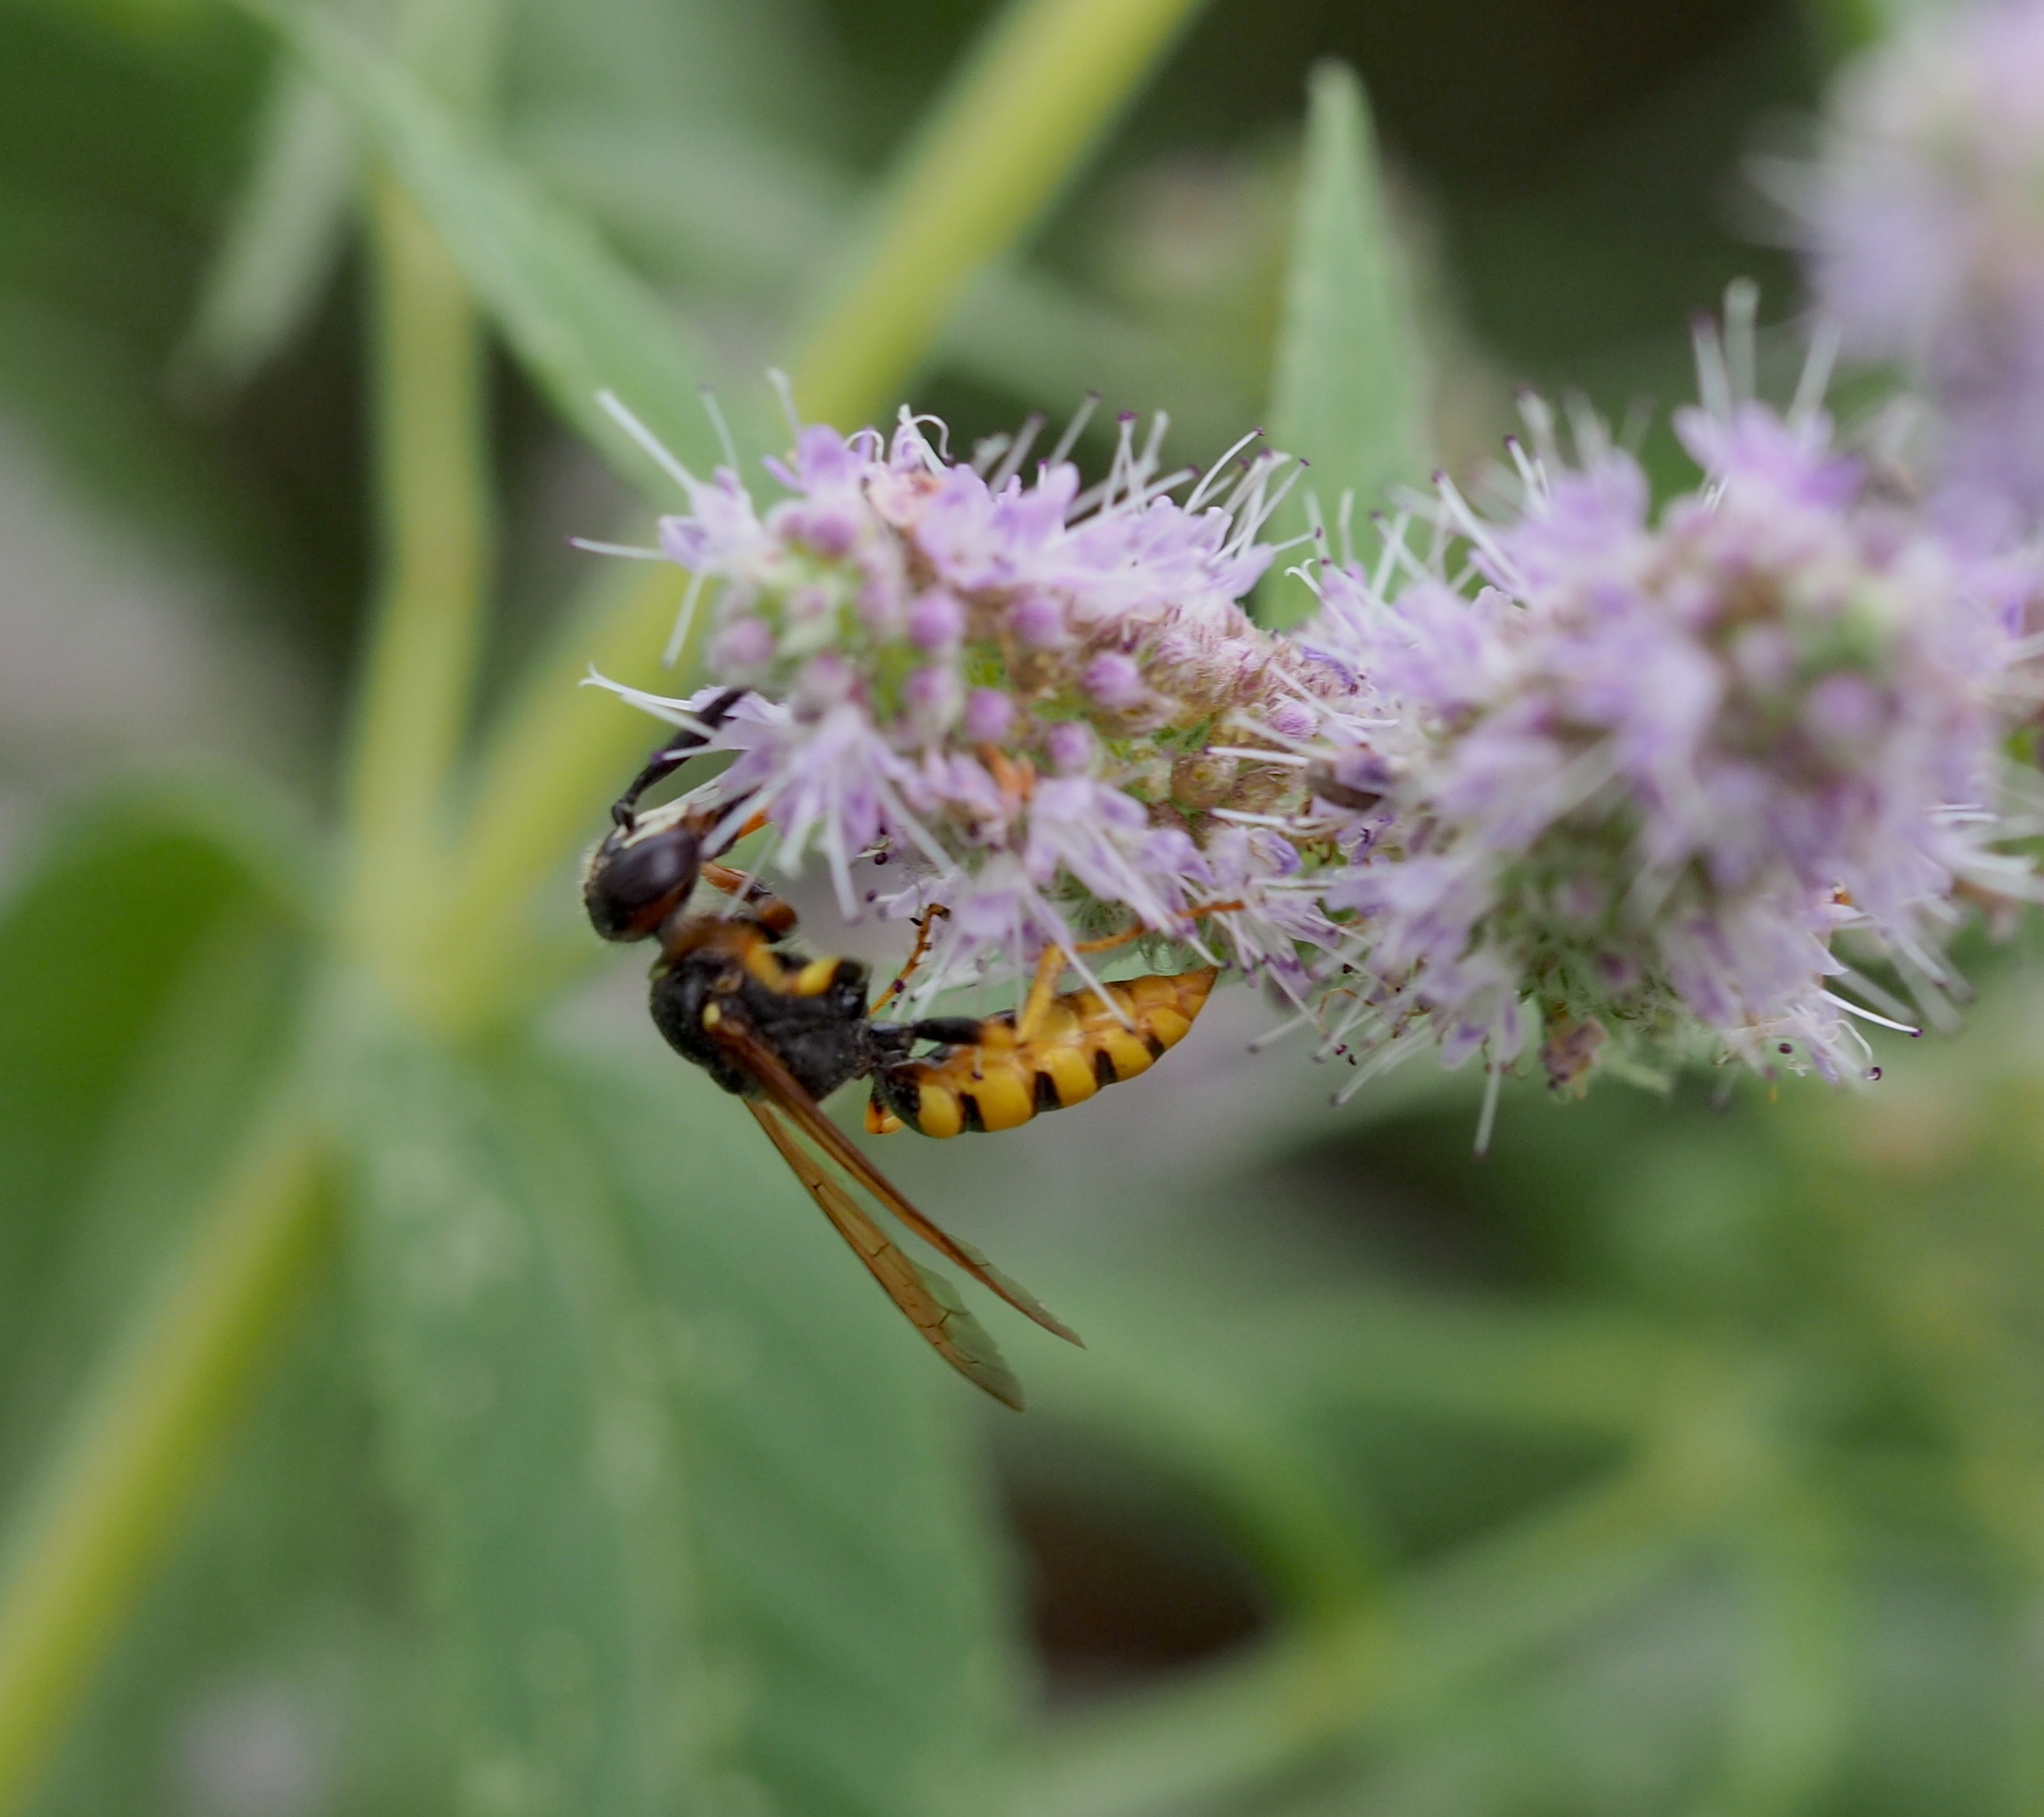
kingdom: Animalia
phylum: Arthropoda
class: Insecta
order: Hymenoptera
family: Crabronidae
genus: Philanthus
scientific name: Philanthus triangulum
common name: Bee wolf
